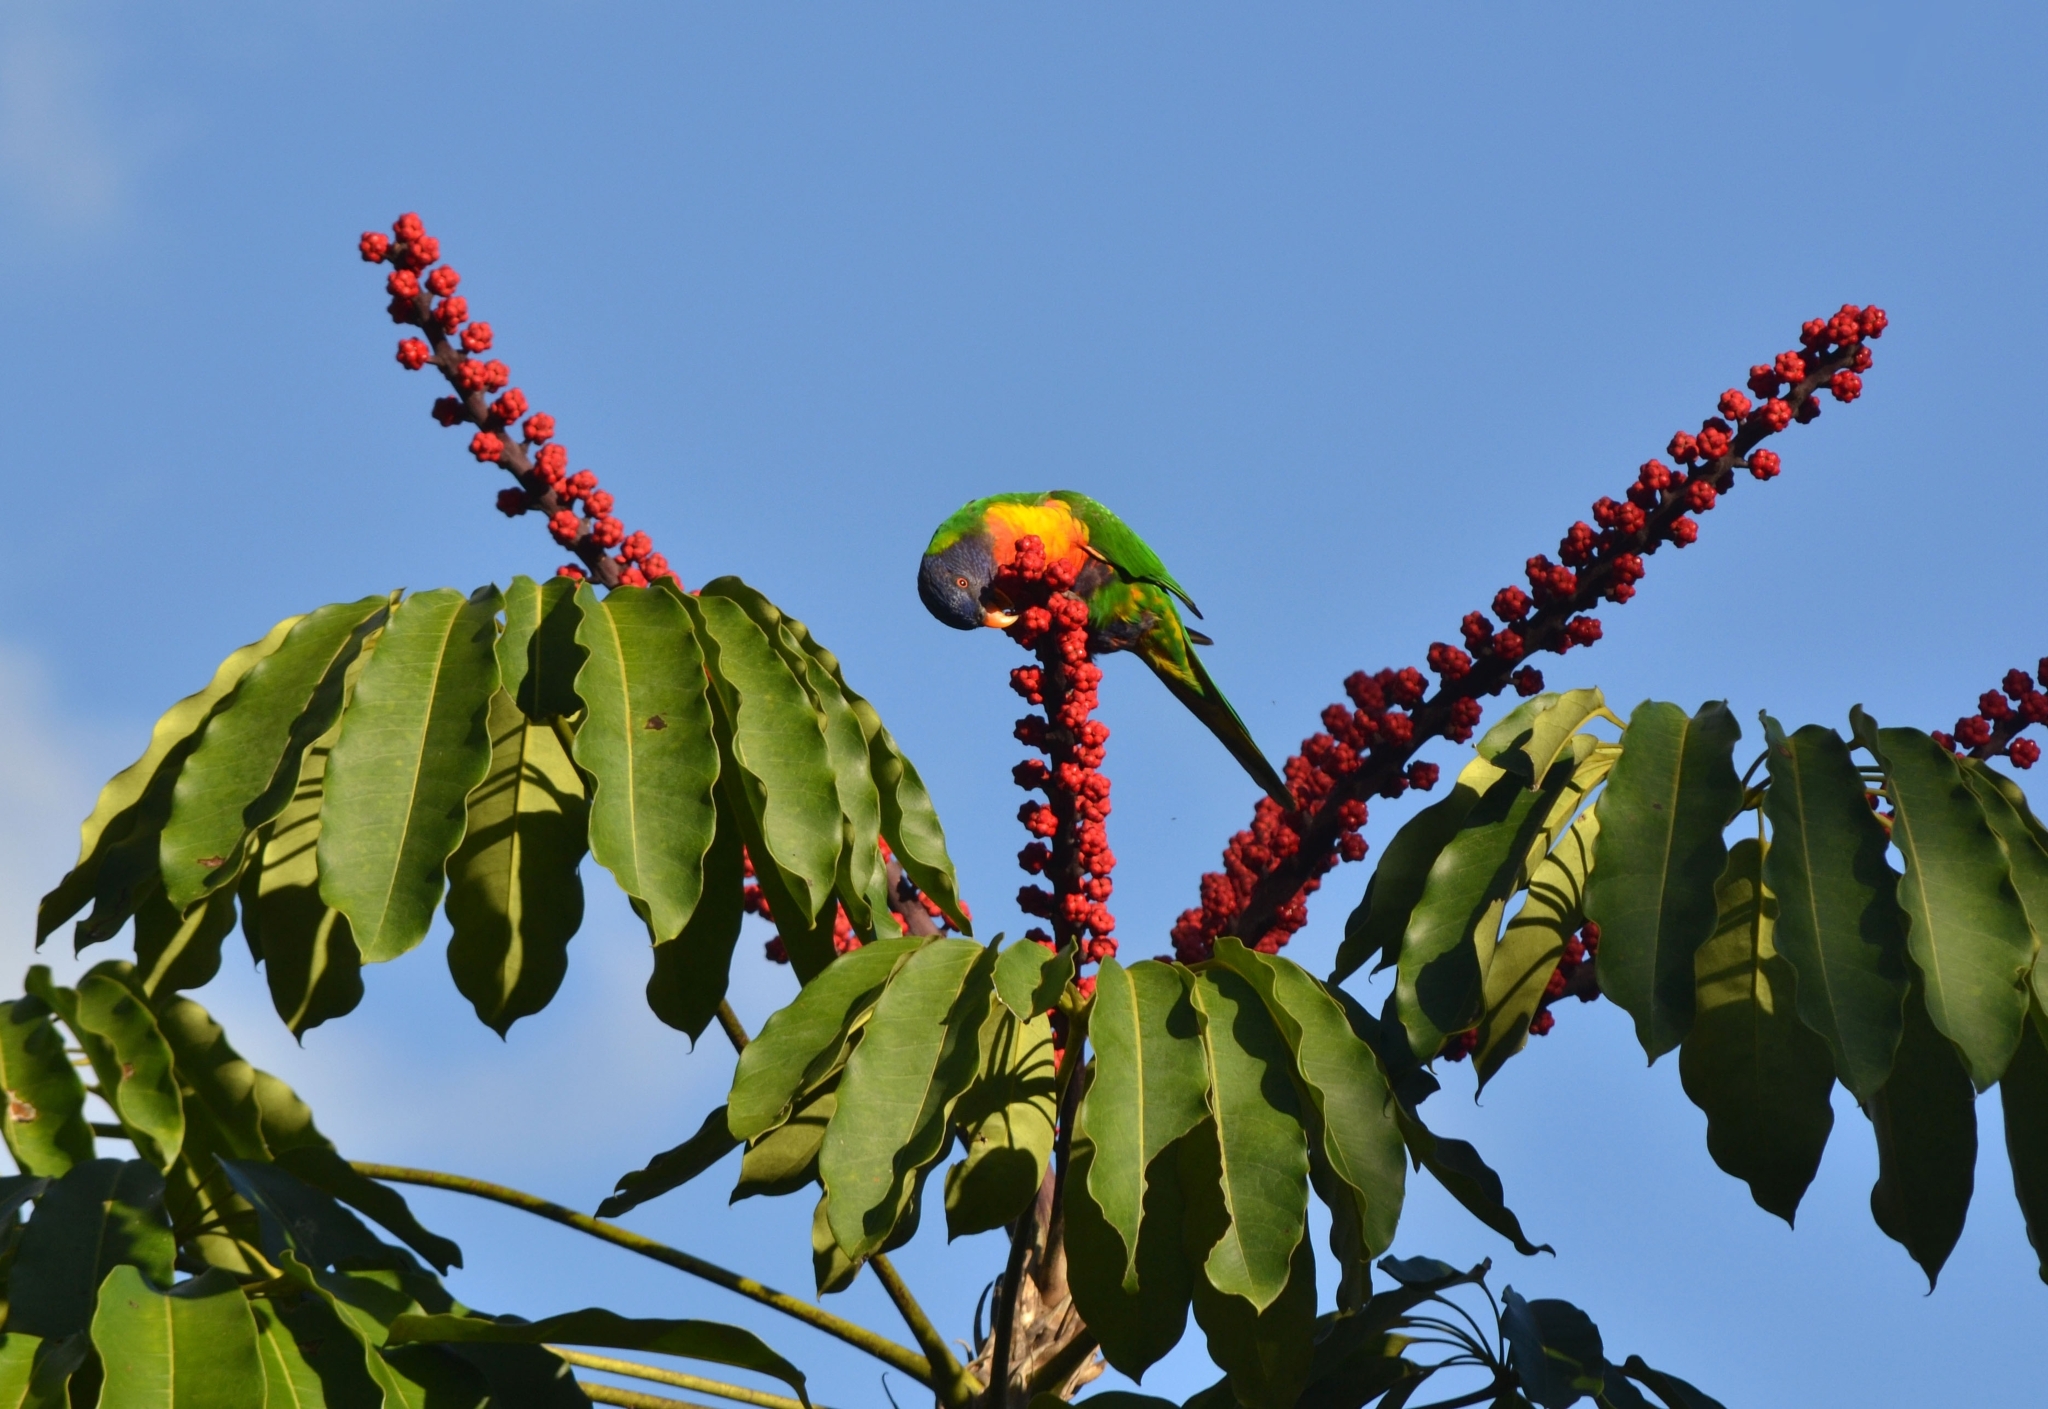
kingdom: Animalia
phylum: Chordata
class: Aves
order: Psittaciformes
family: Psittacidae
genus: Trichoglossus
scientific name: Trichoglossus haematodus
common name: Coconut lorikeet
